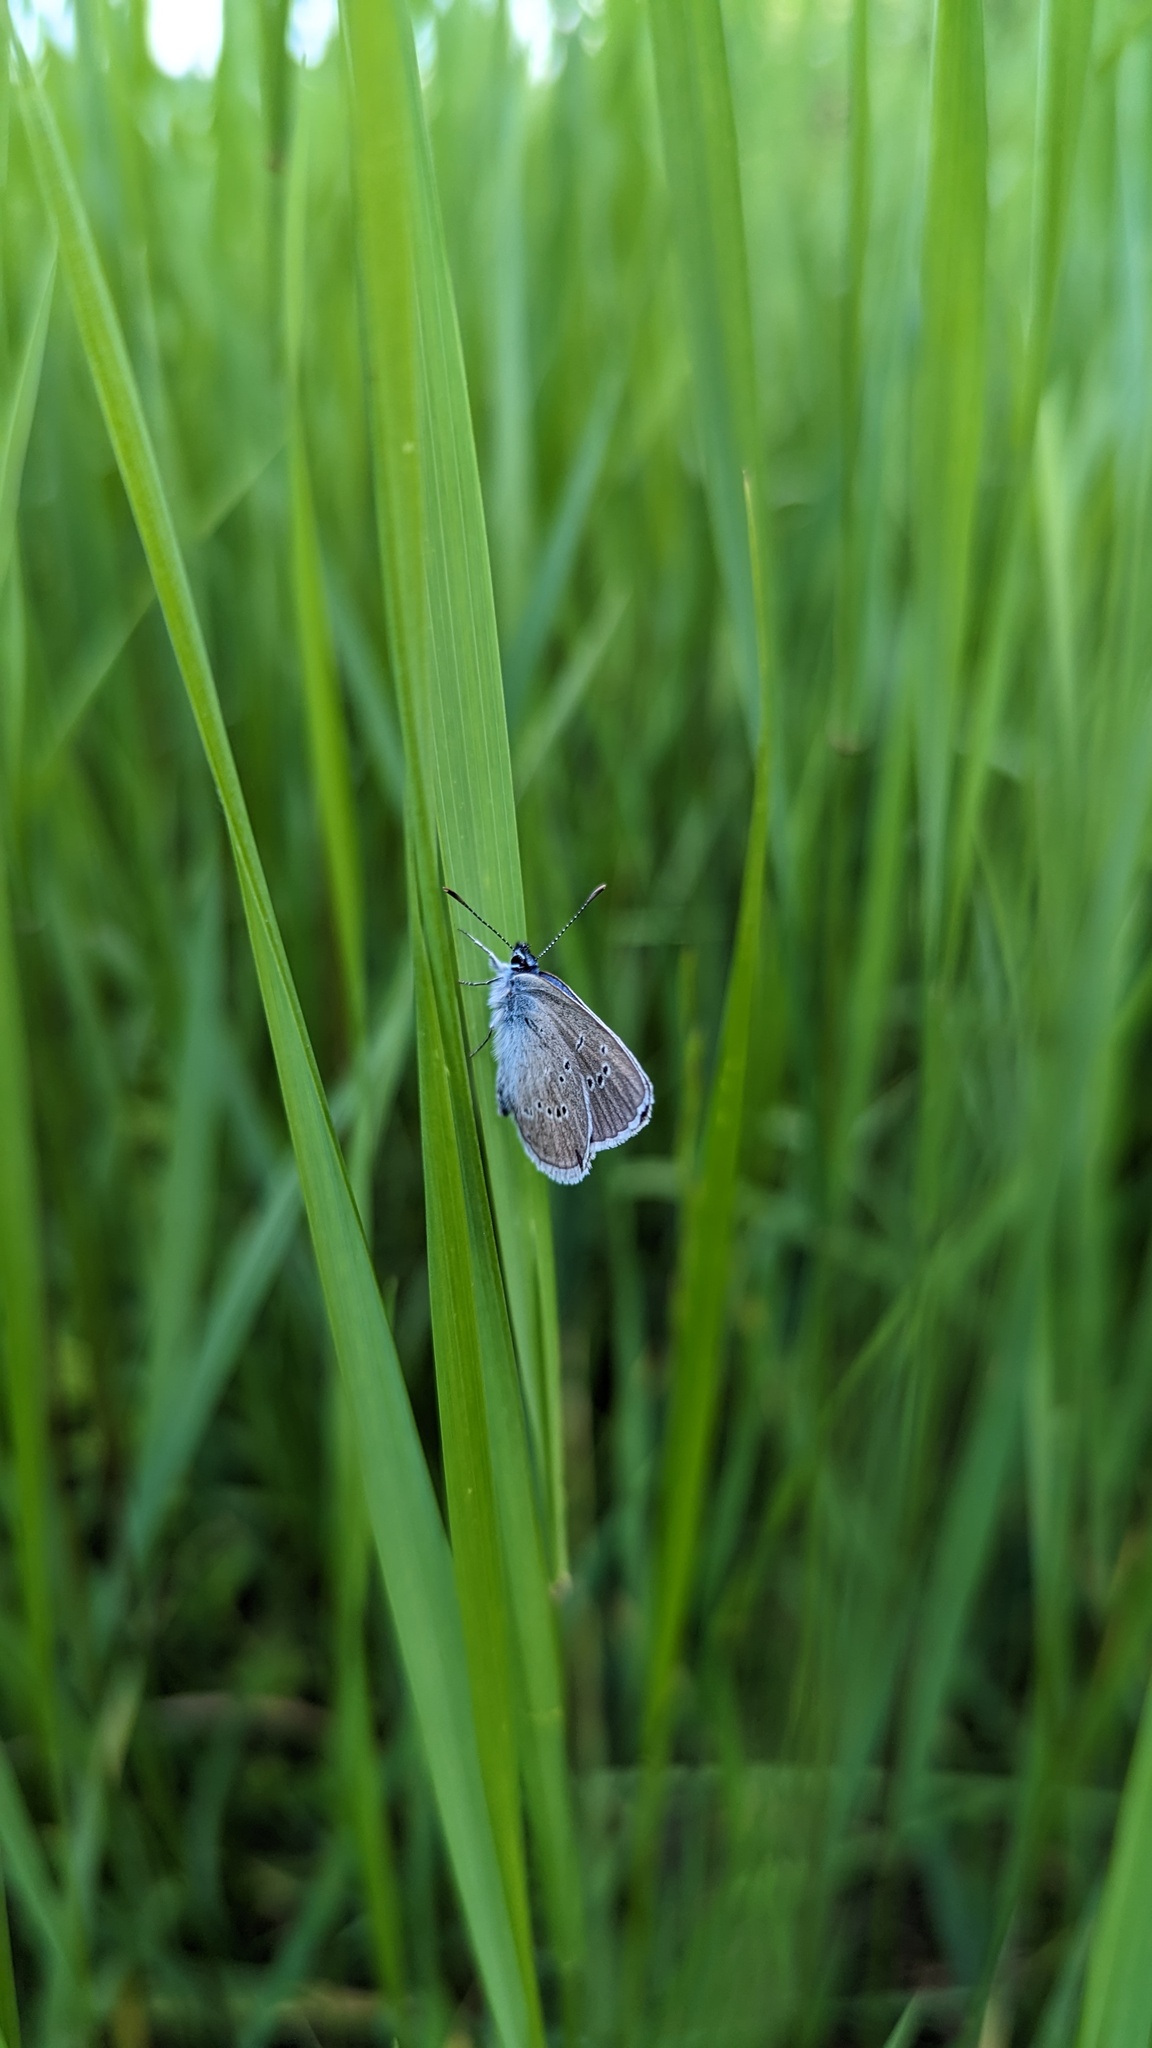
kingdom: Animalia
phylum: Arthropoda
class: Insecta
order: Lepidoptera
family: Lycaenidae
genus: Cyaniris
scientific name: Cyaniris semiargus
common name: Mazarine blue
